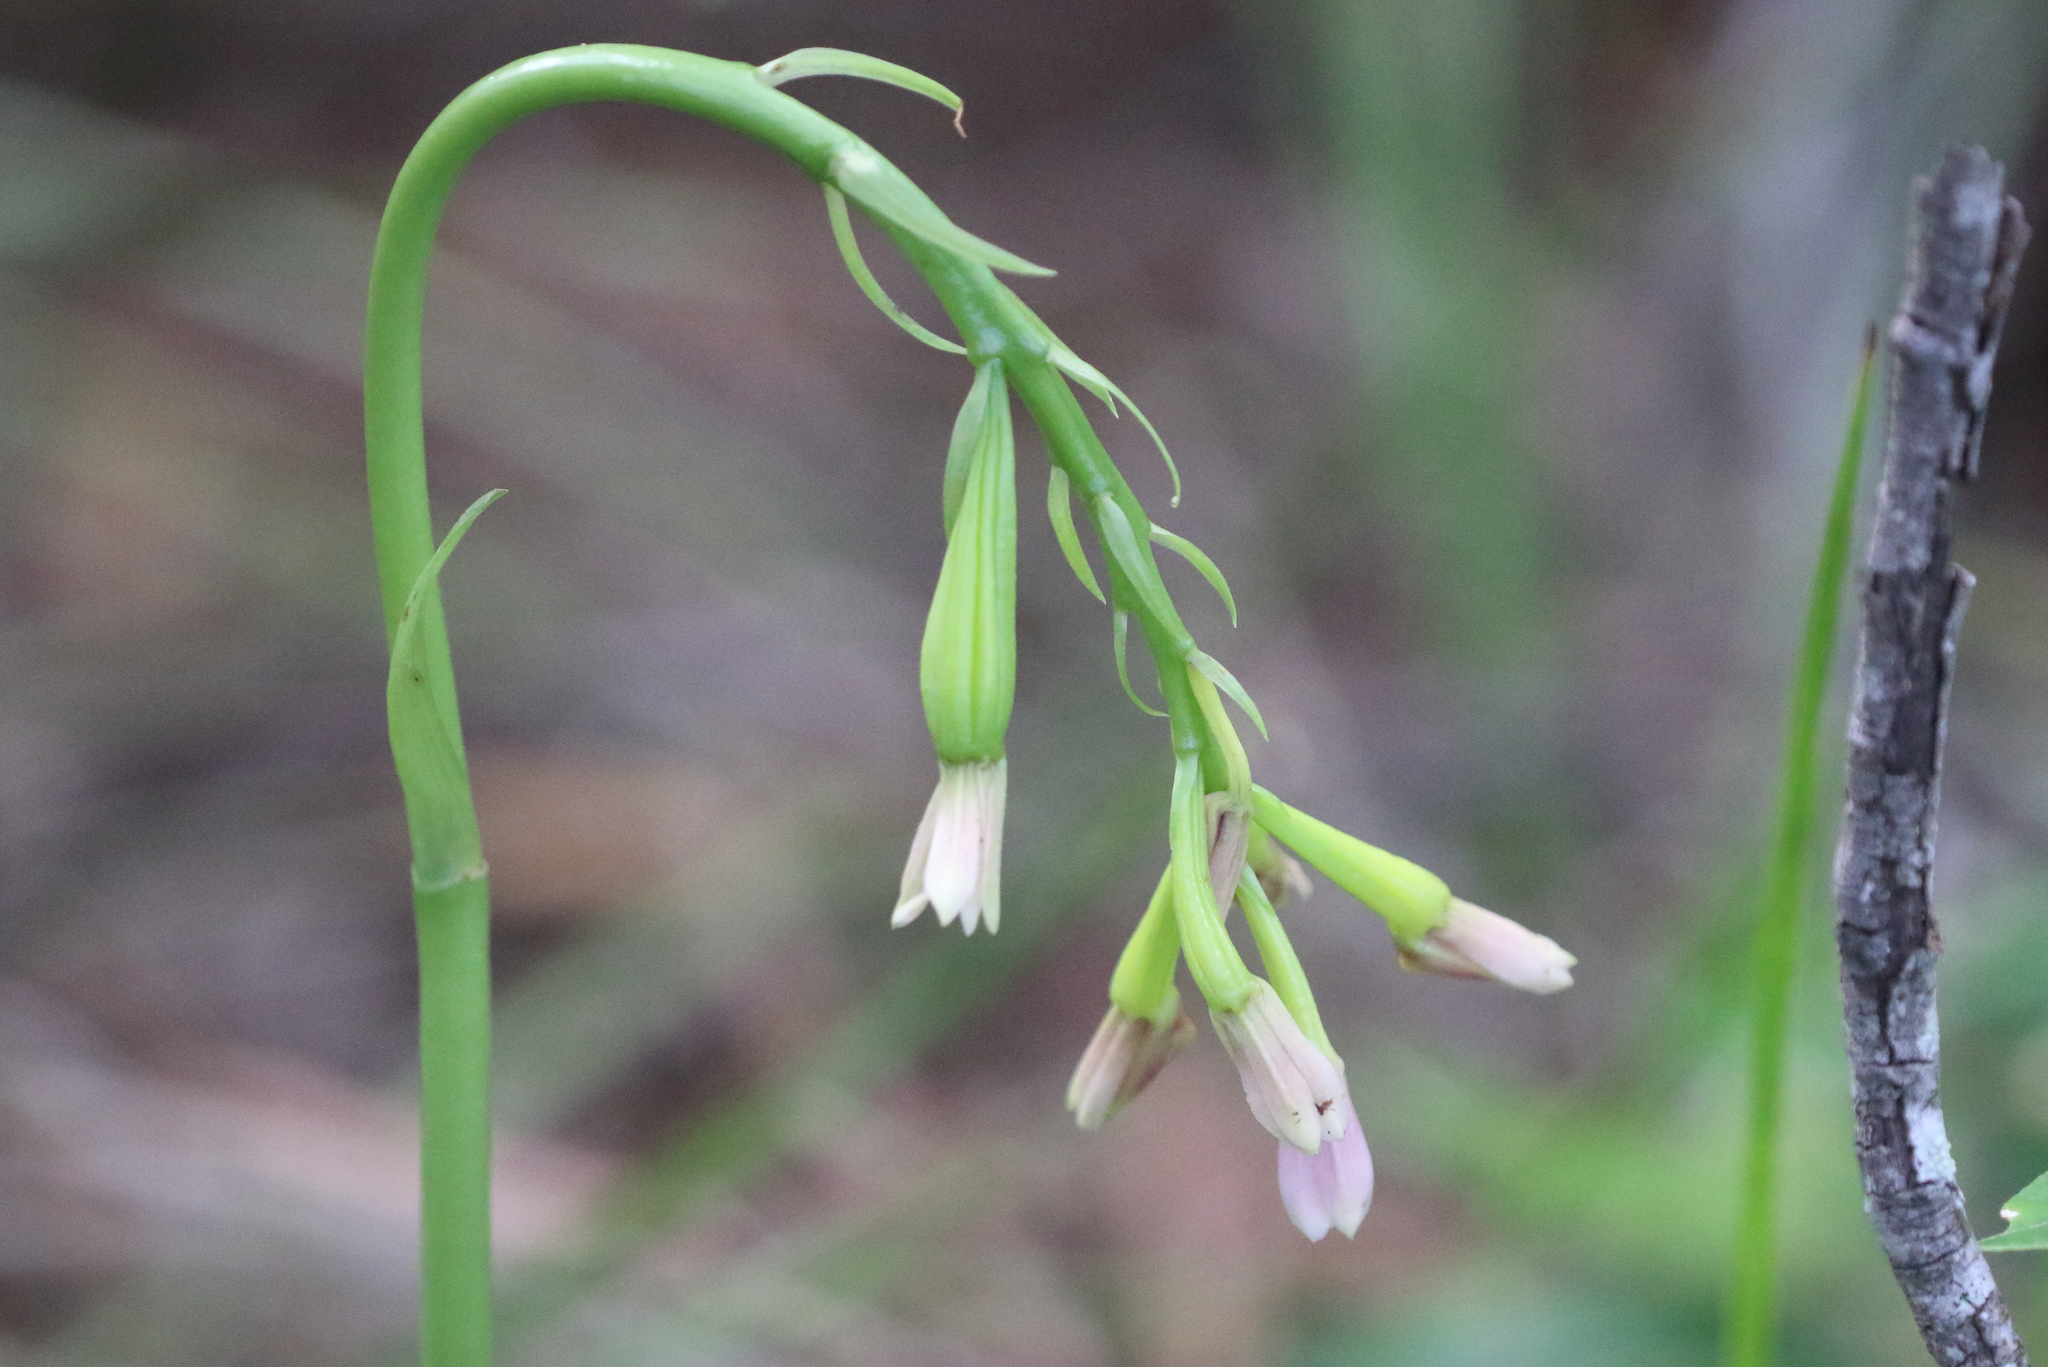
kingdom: Plantae
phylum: Tracheophyta
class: Liliopsida
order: Asparagales
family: Orchidaceae
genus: Eulophia
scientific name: Eulophia cernua
